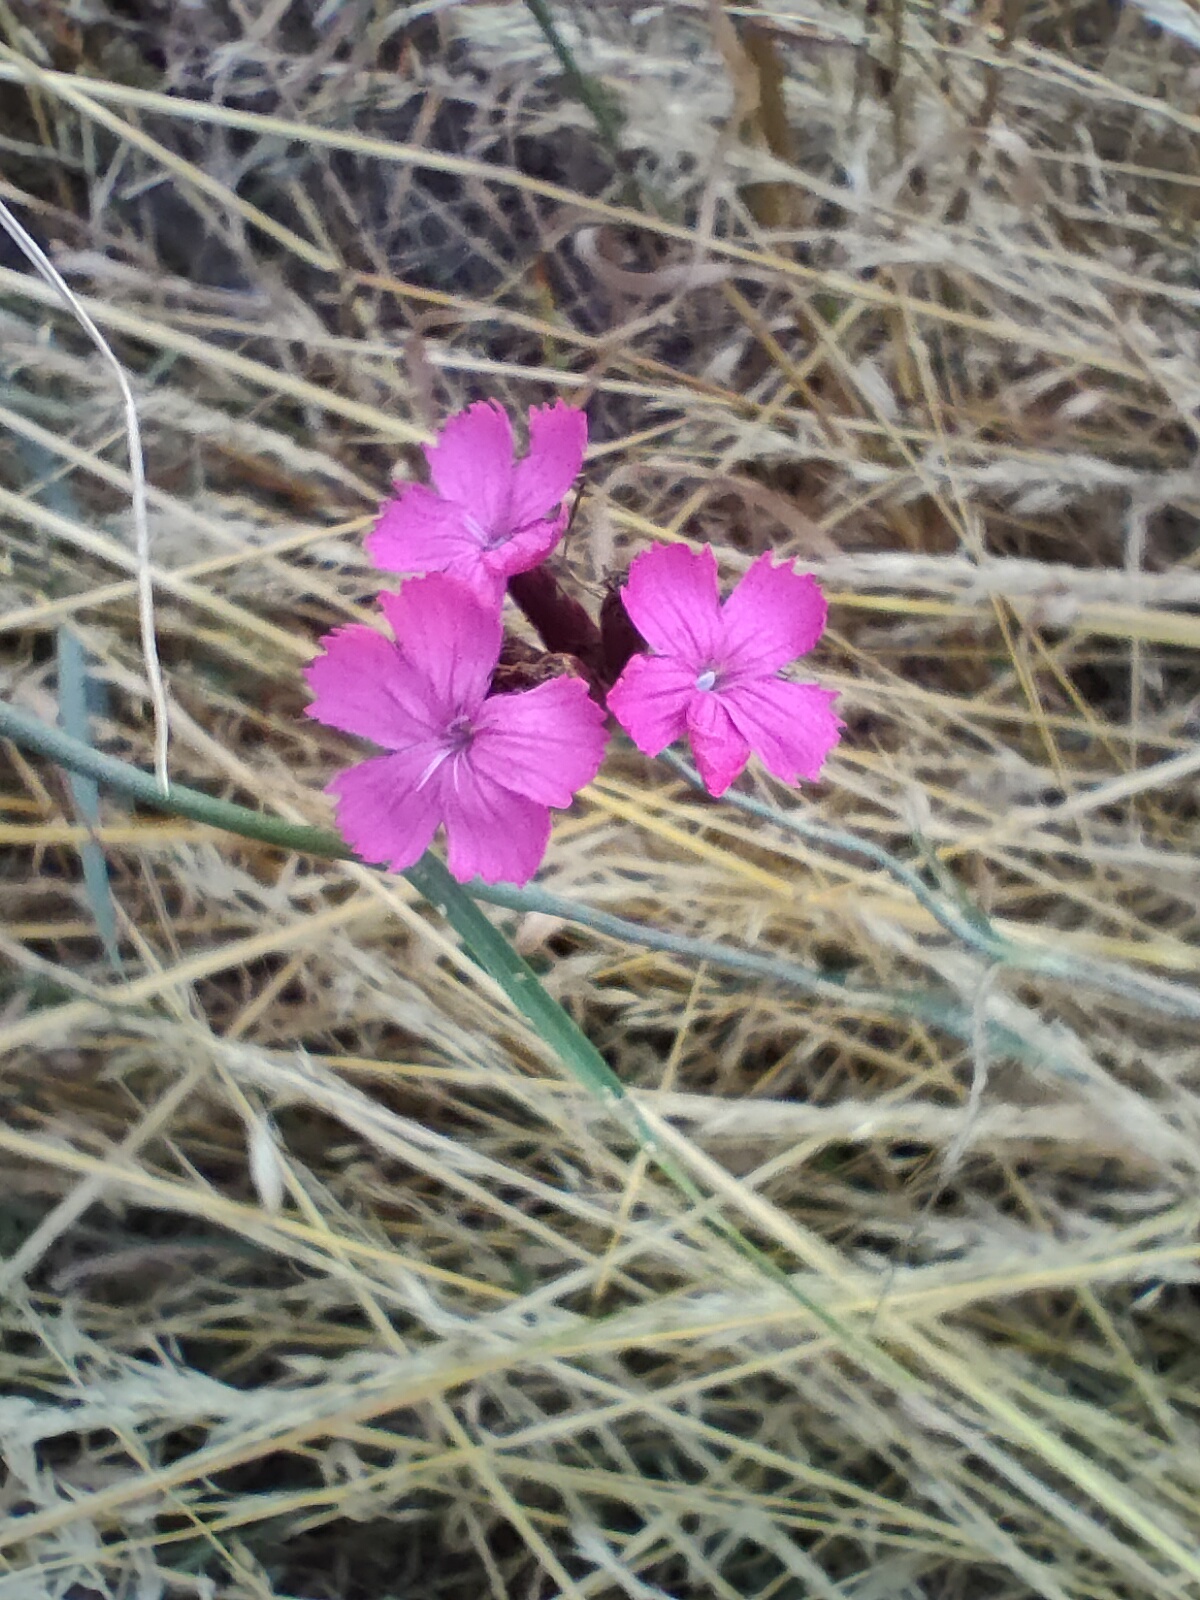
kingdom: Plantae
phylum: Tracheophyta
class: Magnoliopsida
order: Caryophyllales
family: Caryophyllaceae
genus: Dianthus
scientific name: Dianthus carthusianorum
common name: Carthusian pink
